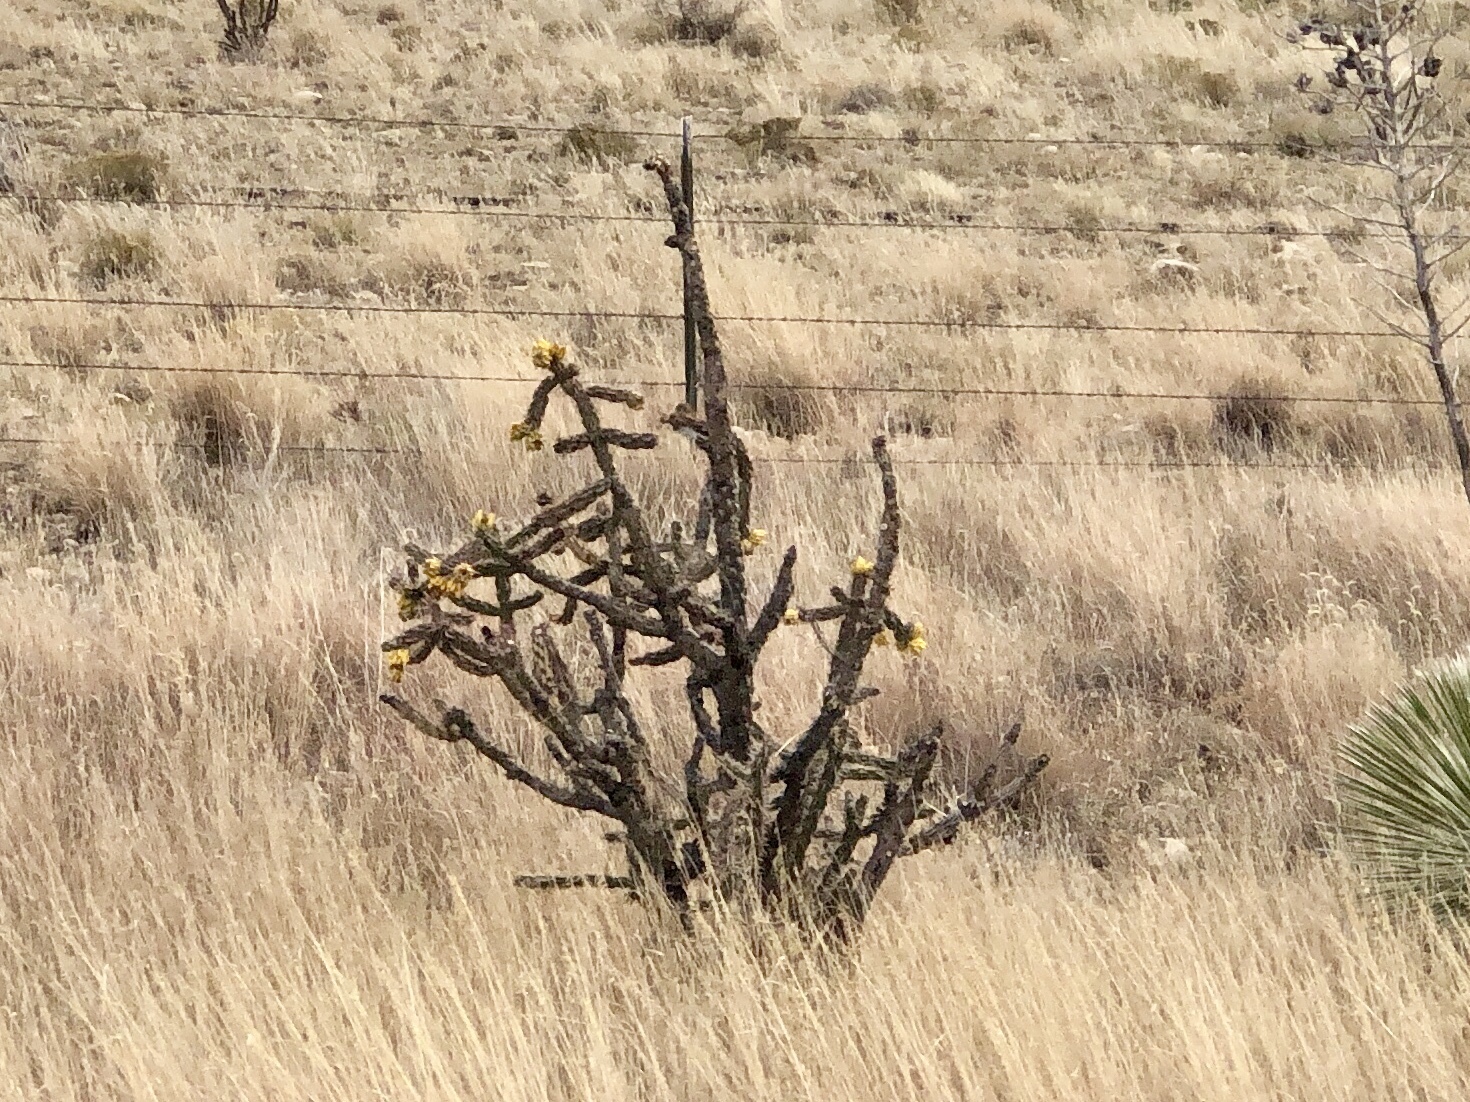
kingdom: Plantae
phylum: Tracheophyta
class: Magnoliopsida
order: Caryophyllales
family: Cactaceae
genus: Cylindropuntia
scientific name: Cylindropuntia imbricata
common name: Candelabrum cactus
